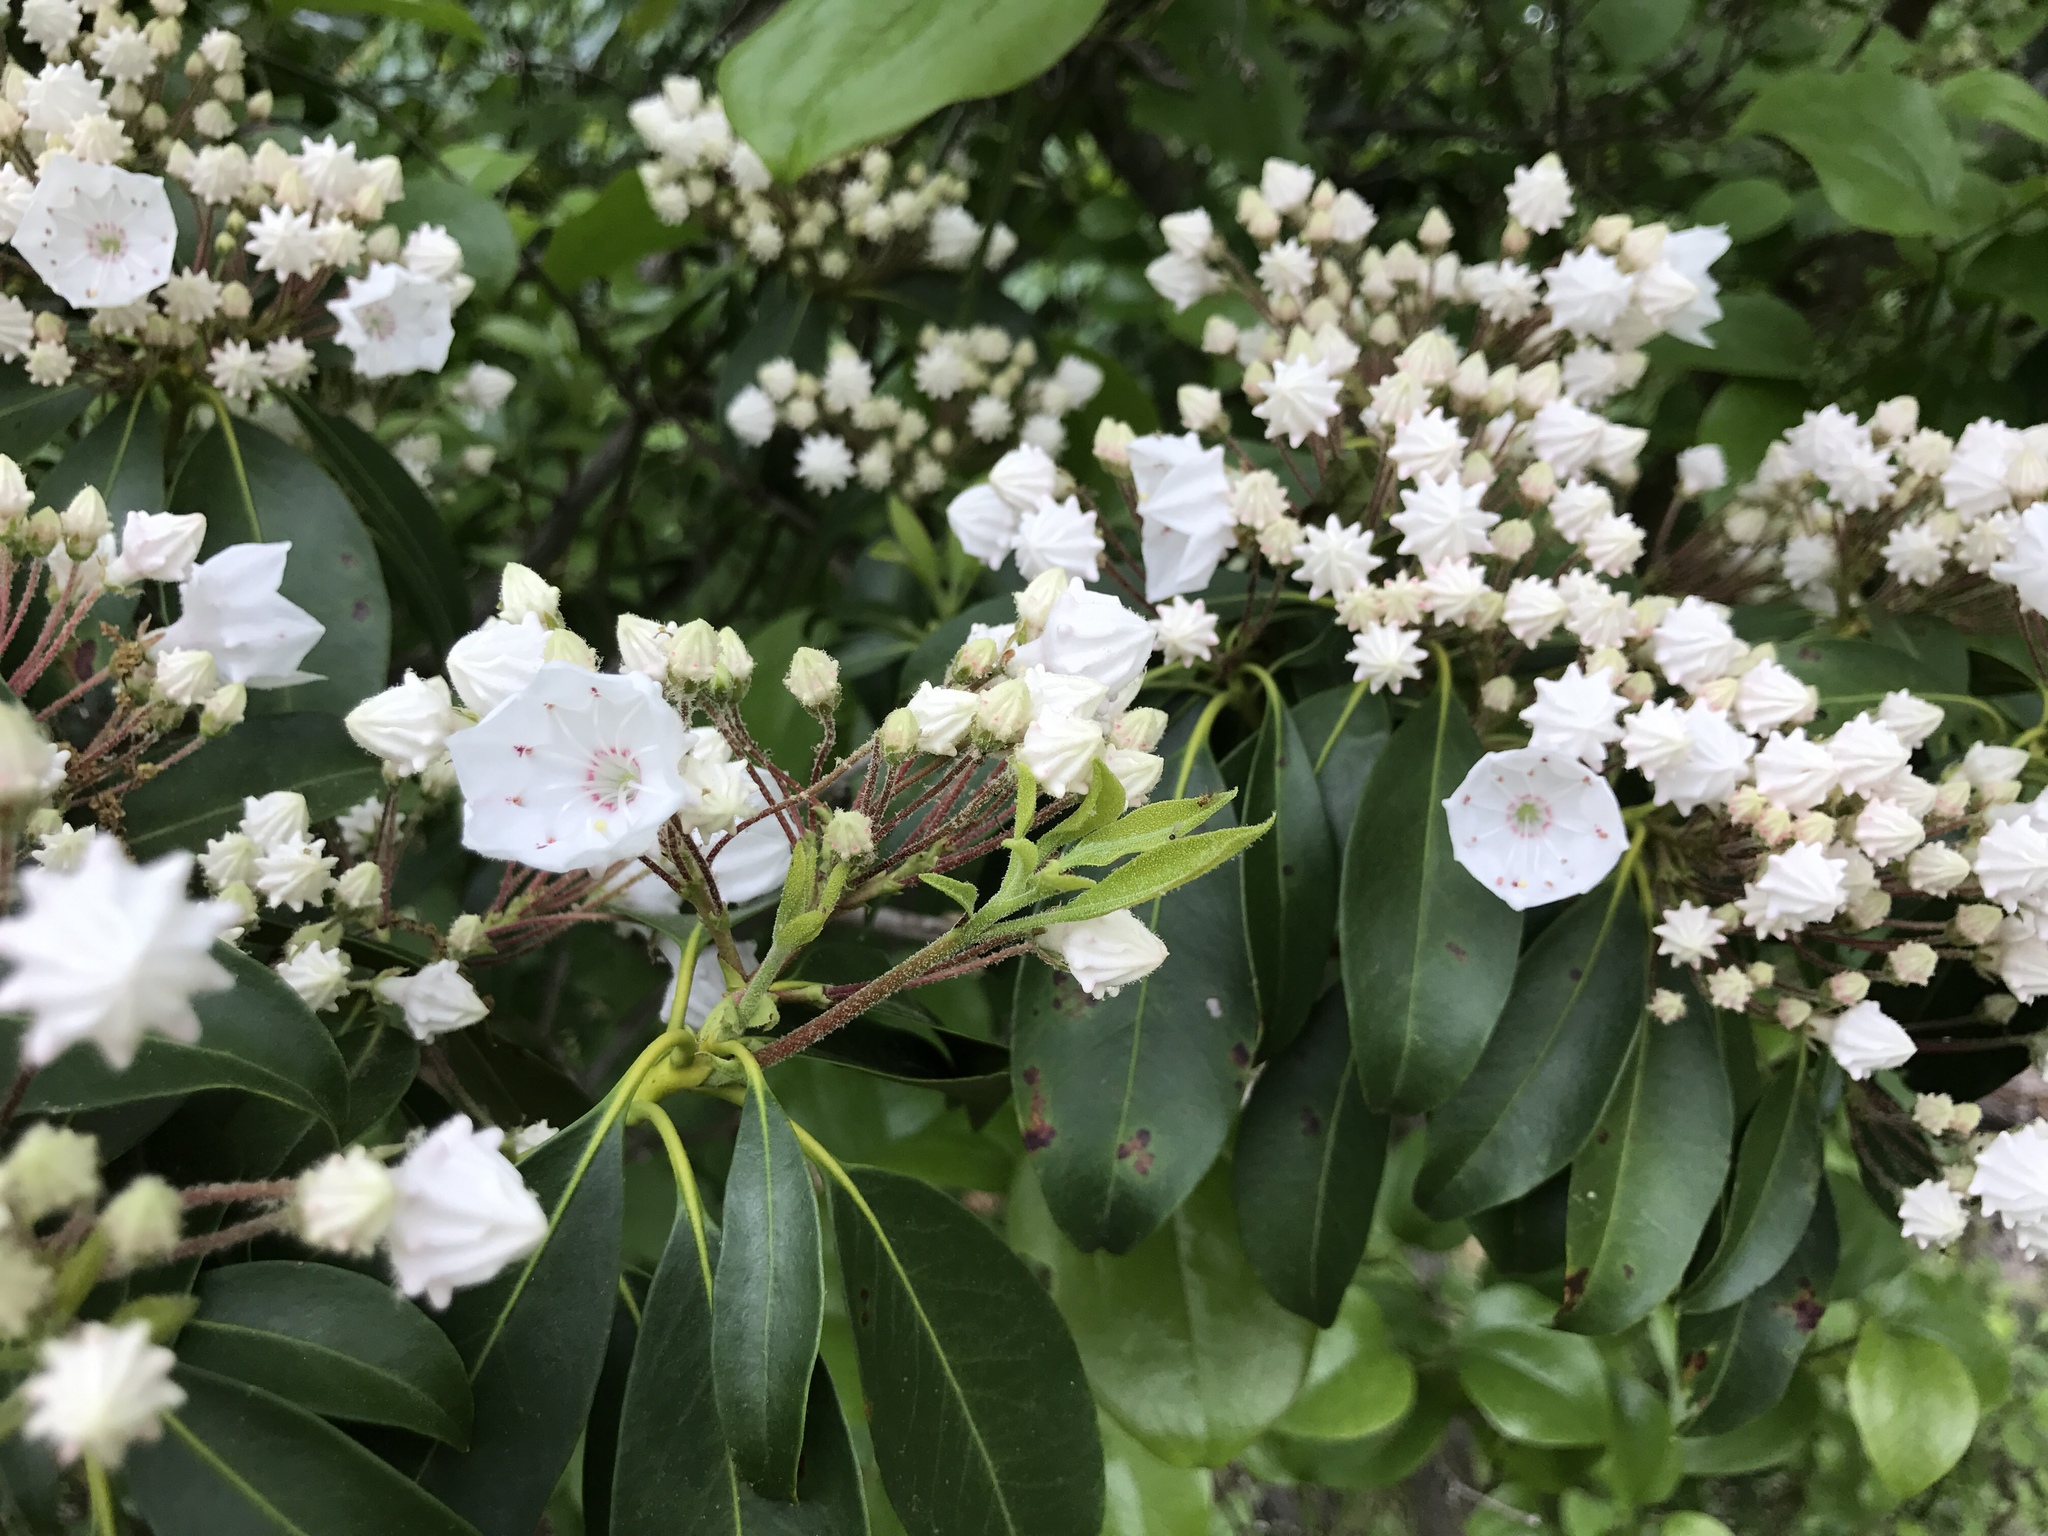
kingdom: Plantae
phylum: Tracheophyta
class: Magnoliopsida
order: Ericales
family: Ericaceae
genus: Kalmia
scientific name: Kalmia latifolia
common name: Mountain-laurel
